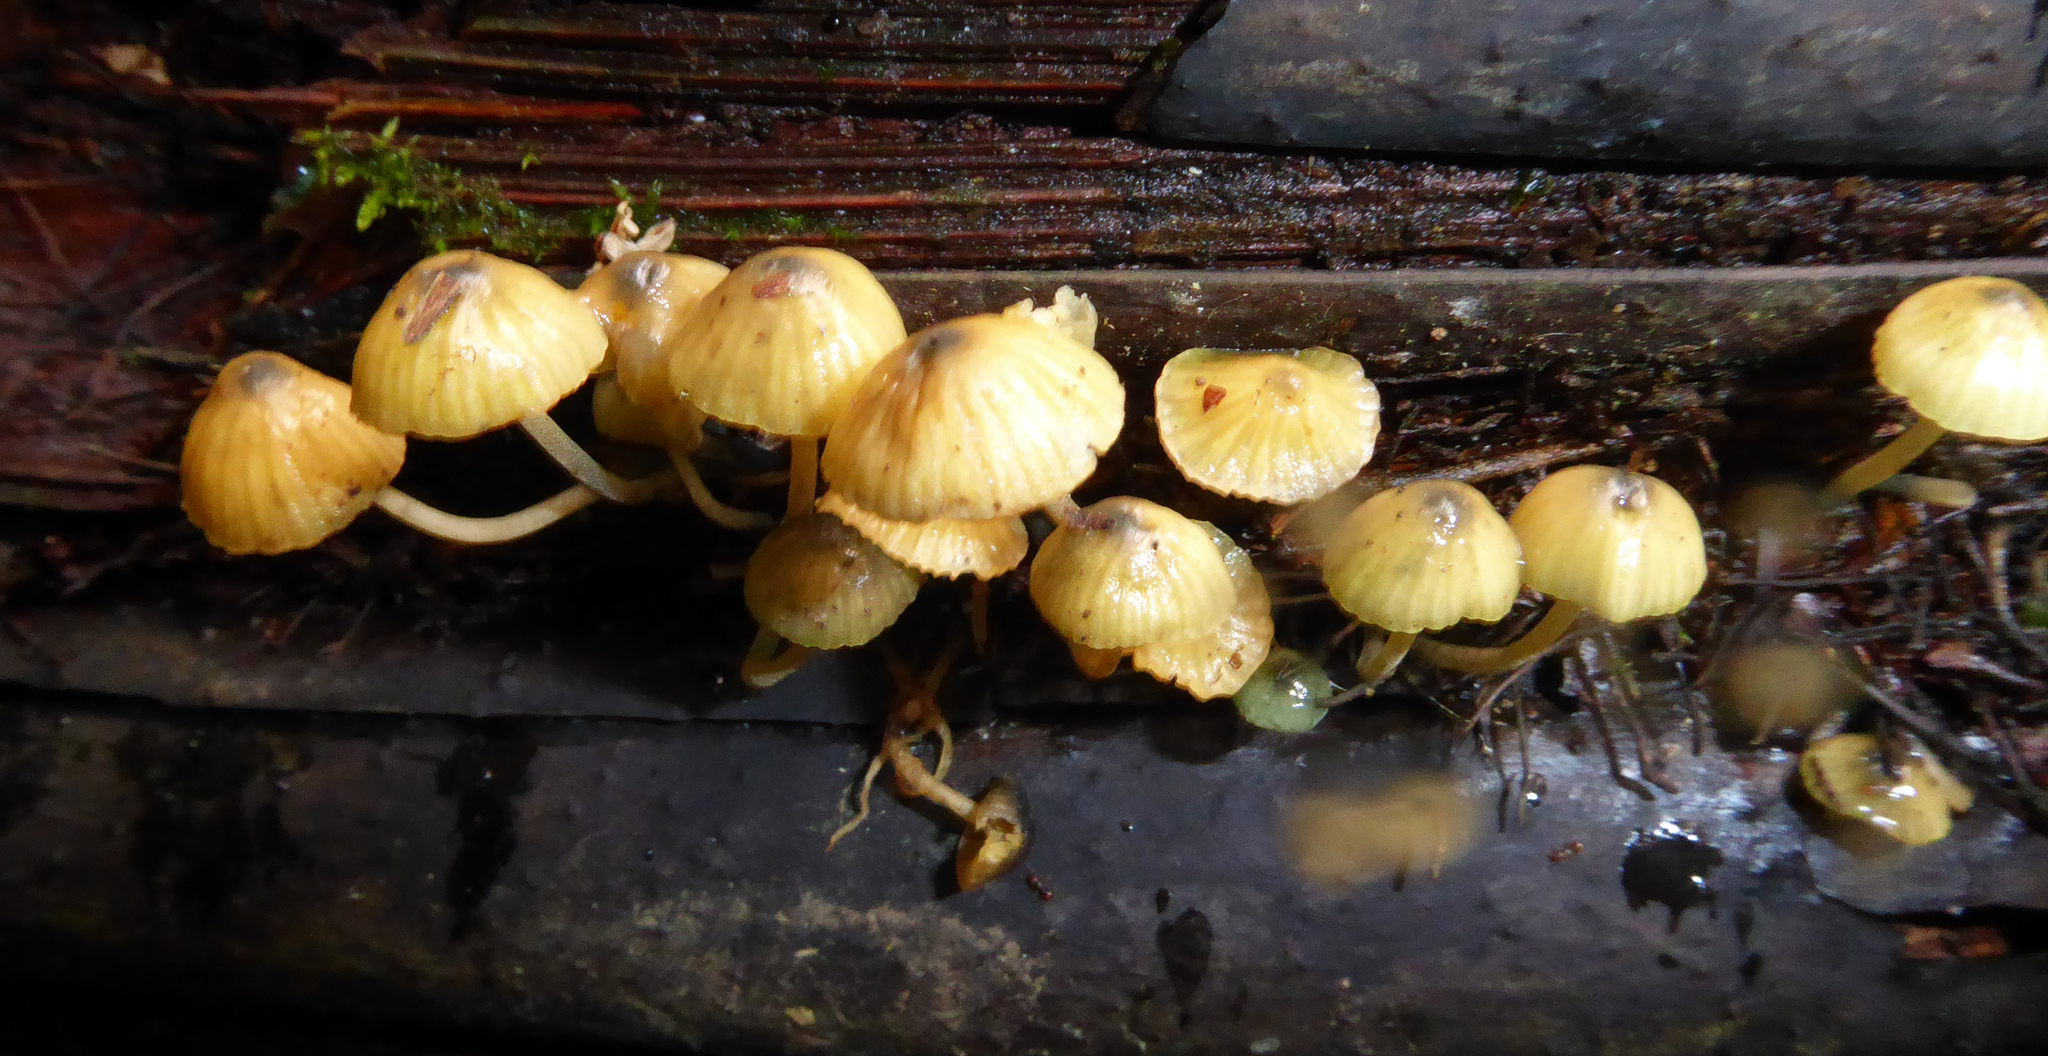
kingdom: Fungi
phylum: Basidiomycota
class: Agaricomycetes
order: Agaricales
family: Mycenaceae
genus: Insiticia
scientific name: Insiticia flavovirens
